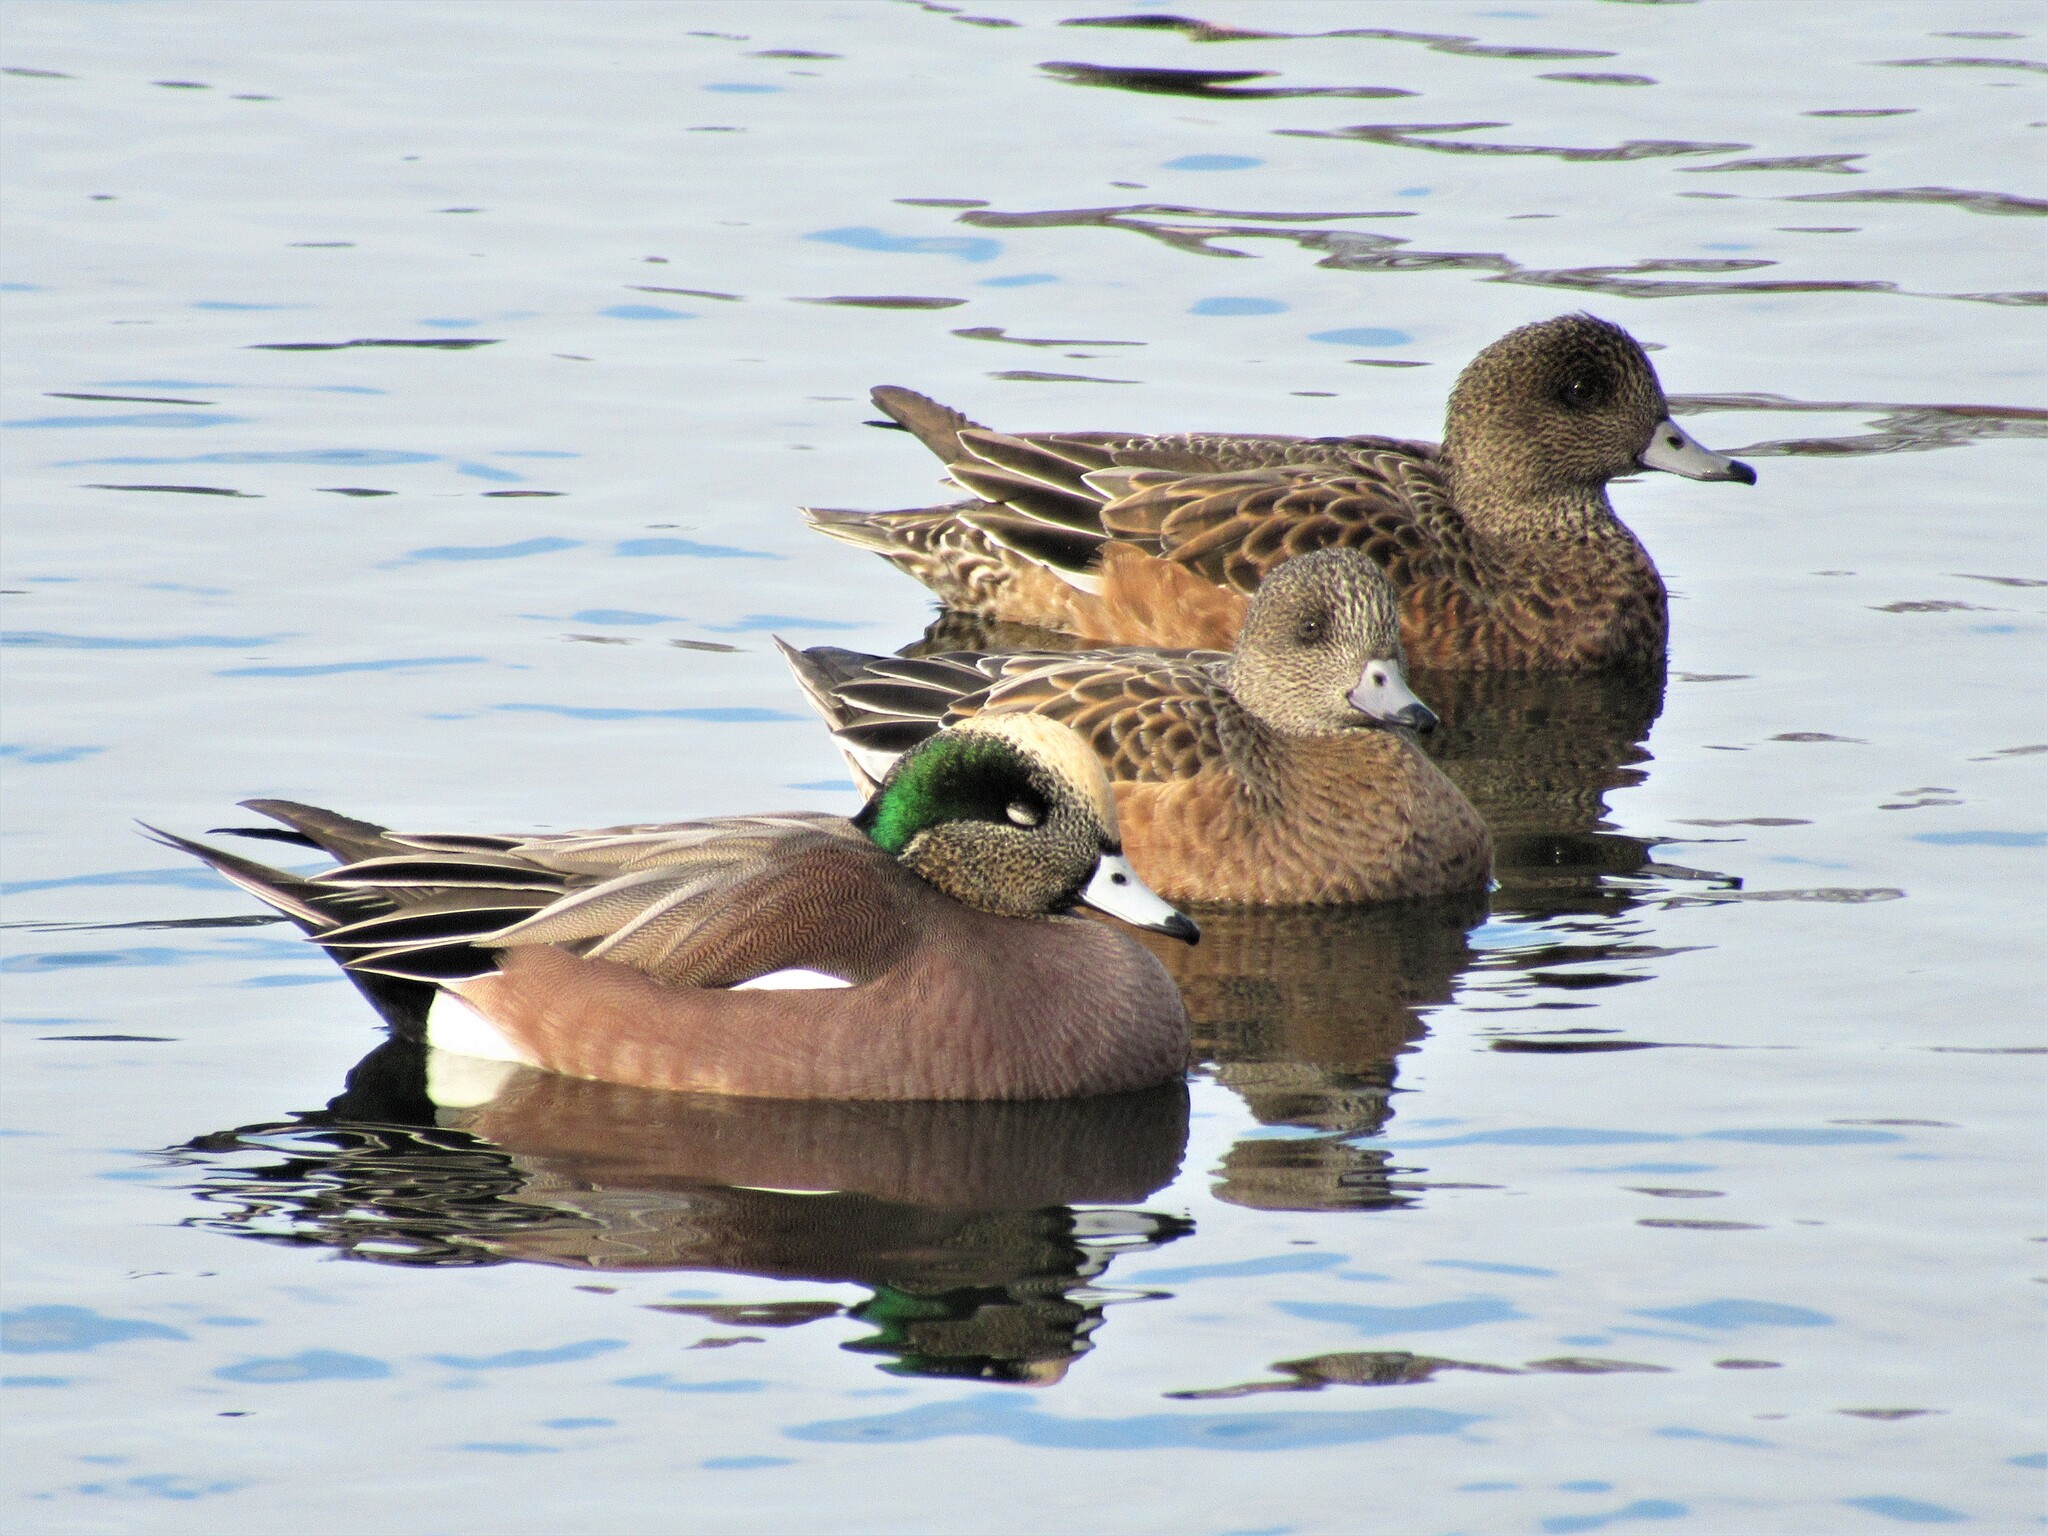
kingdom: Animalia
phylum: Chordata
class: Aves
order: Anseriformes
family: Anatidae
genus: Mareca
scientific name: Mareca americana
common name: American wigeon
